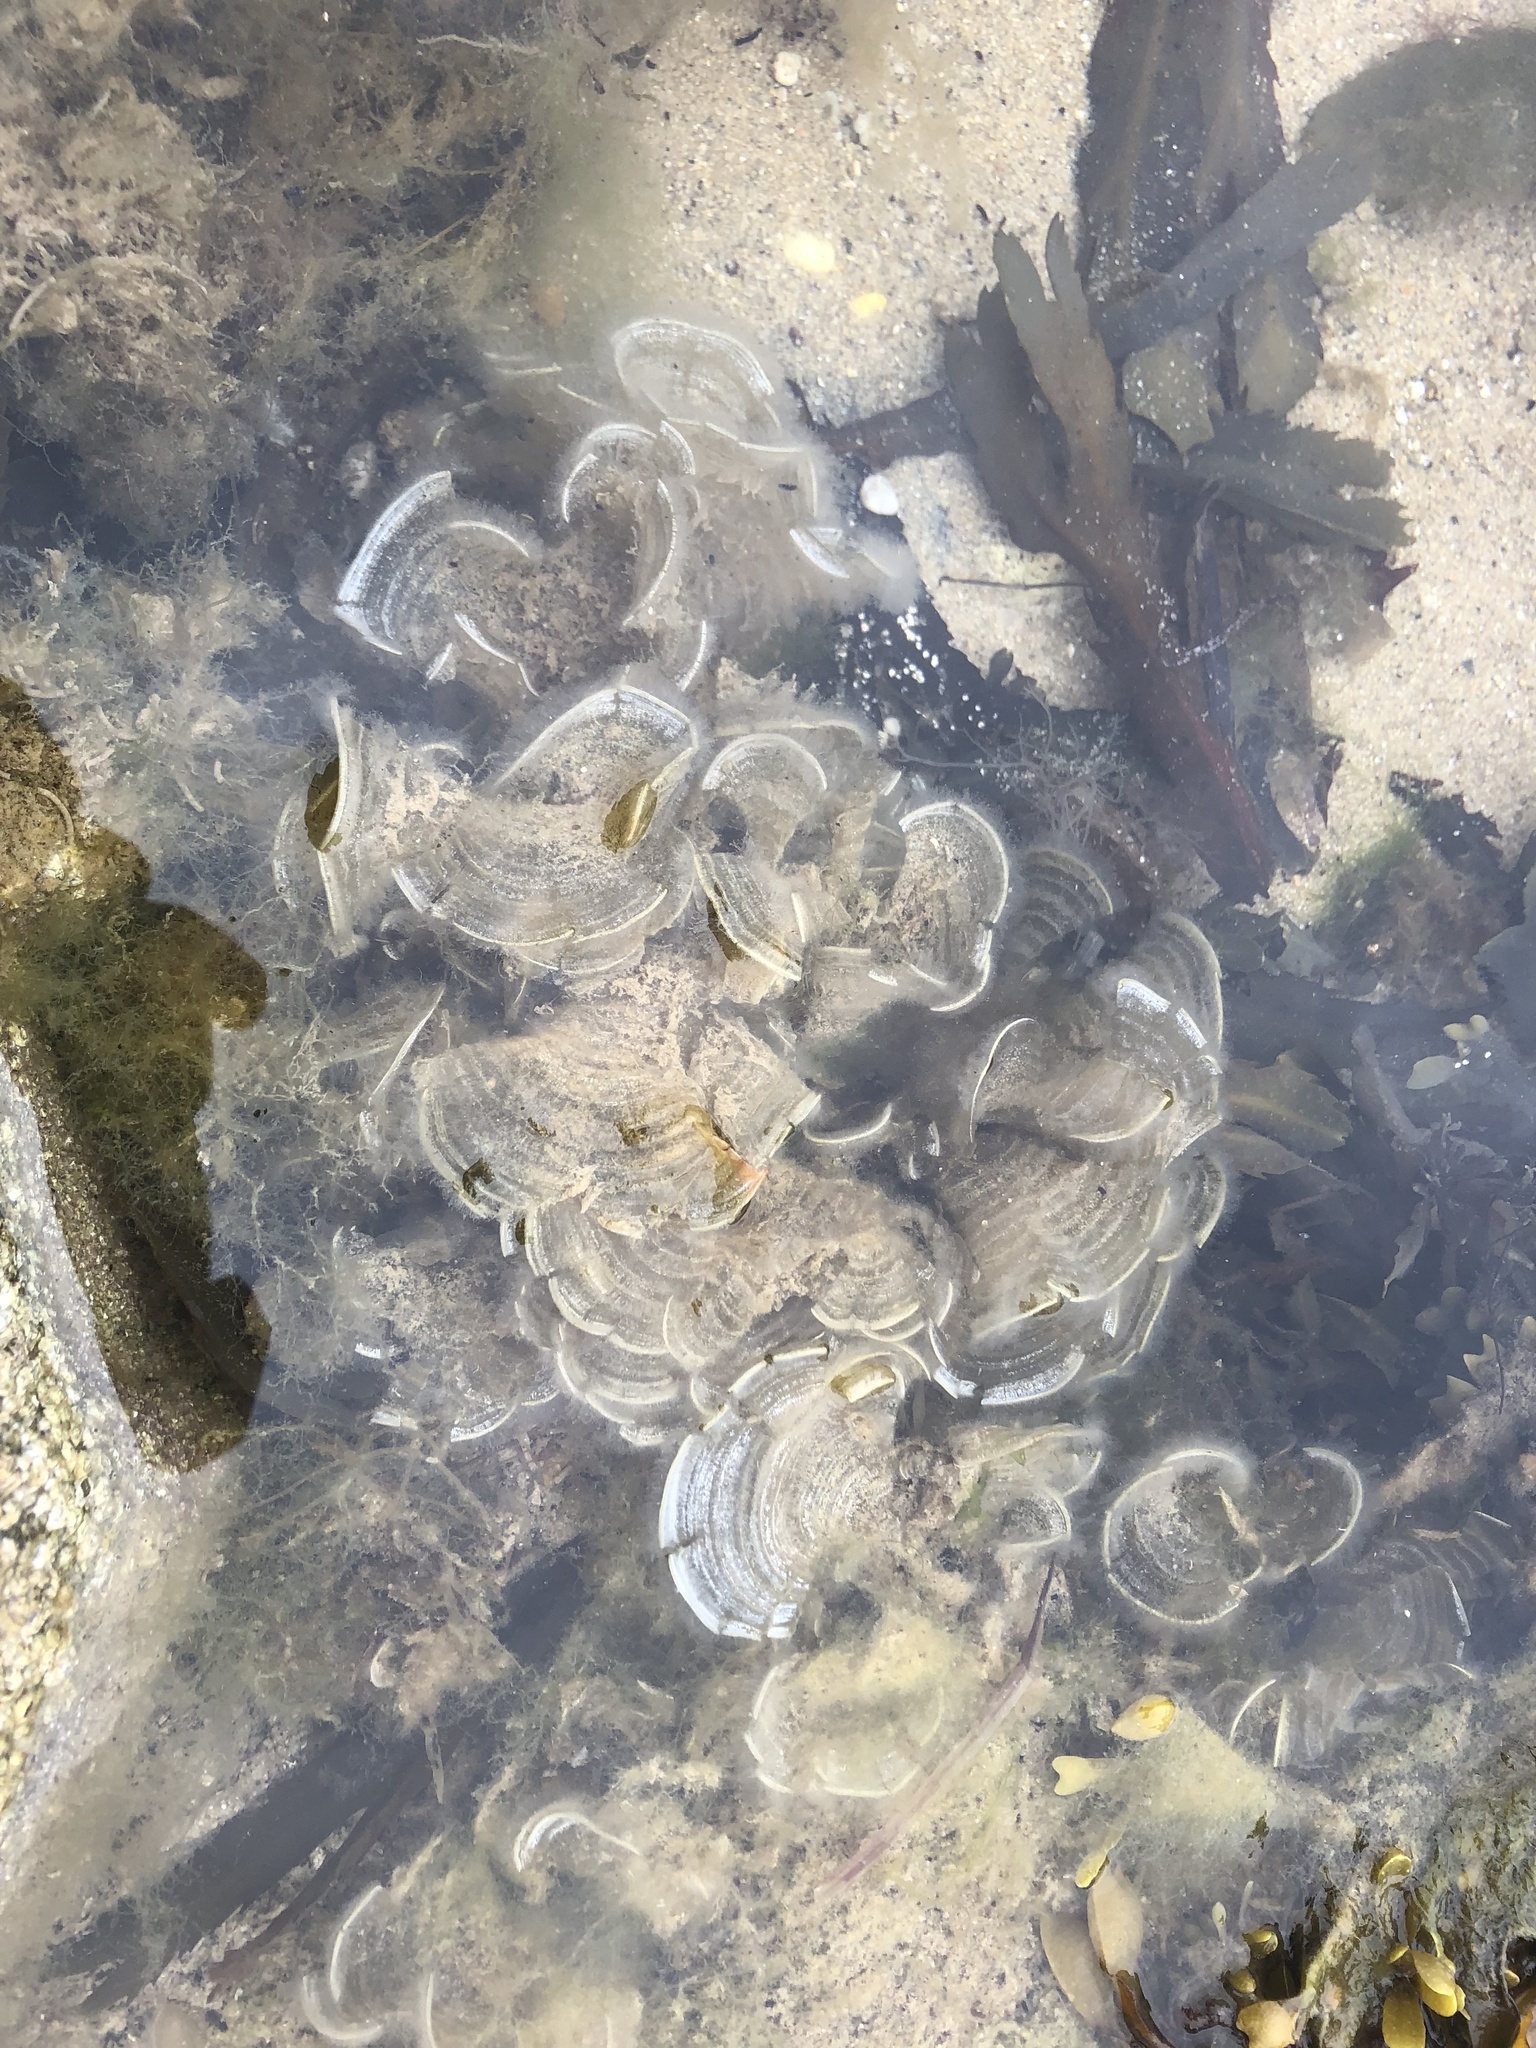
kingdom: Chromista
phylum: Ochrophyta
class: Phaeophyceae
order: Dictyotales
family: Dictyotaceae
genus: Padina
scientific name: Padina pavonica
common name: Turkey feather alga
